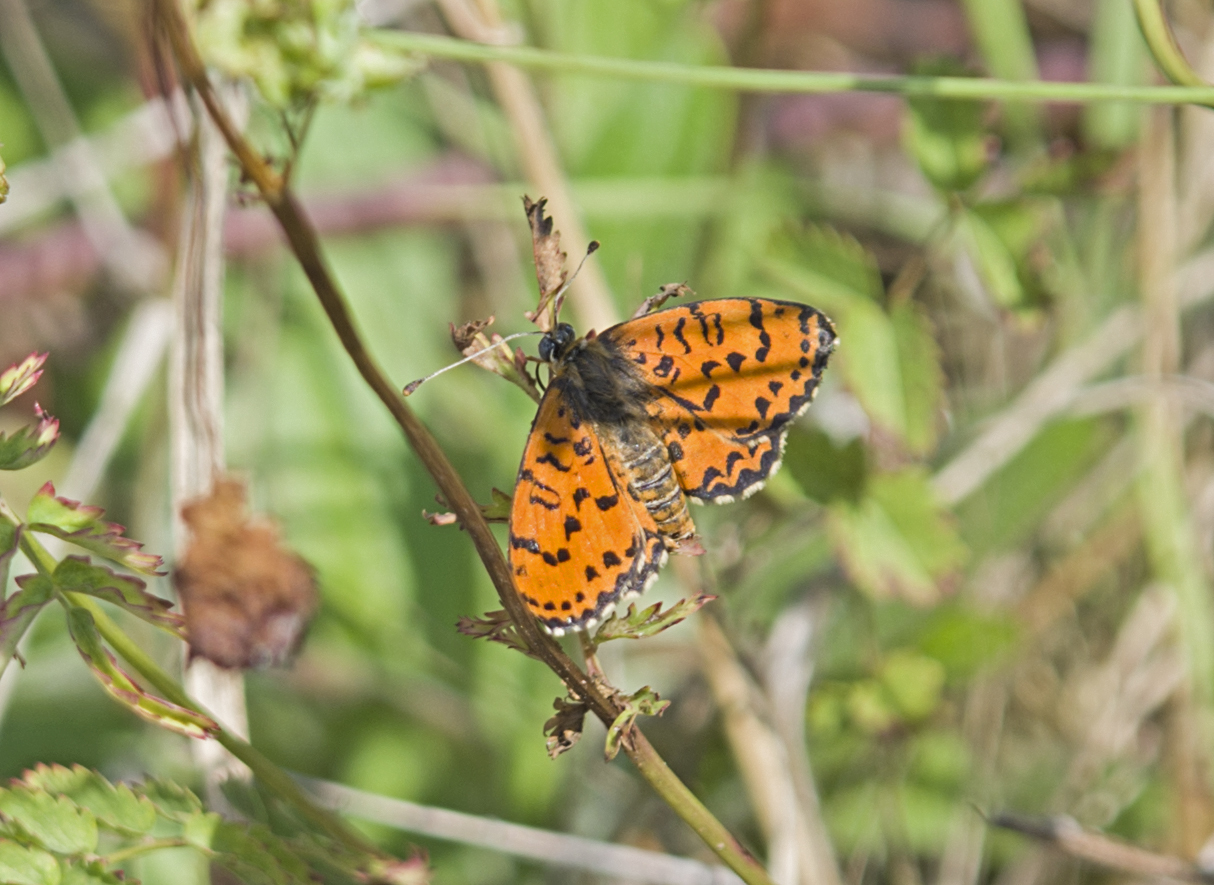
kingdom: Animalia
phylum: Arthropoda
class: Insecta
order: Lepidoptera
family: Nymphalidae
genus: Melitaea
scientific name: Melitaea didyma
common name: Spotted fritillary
